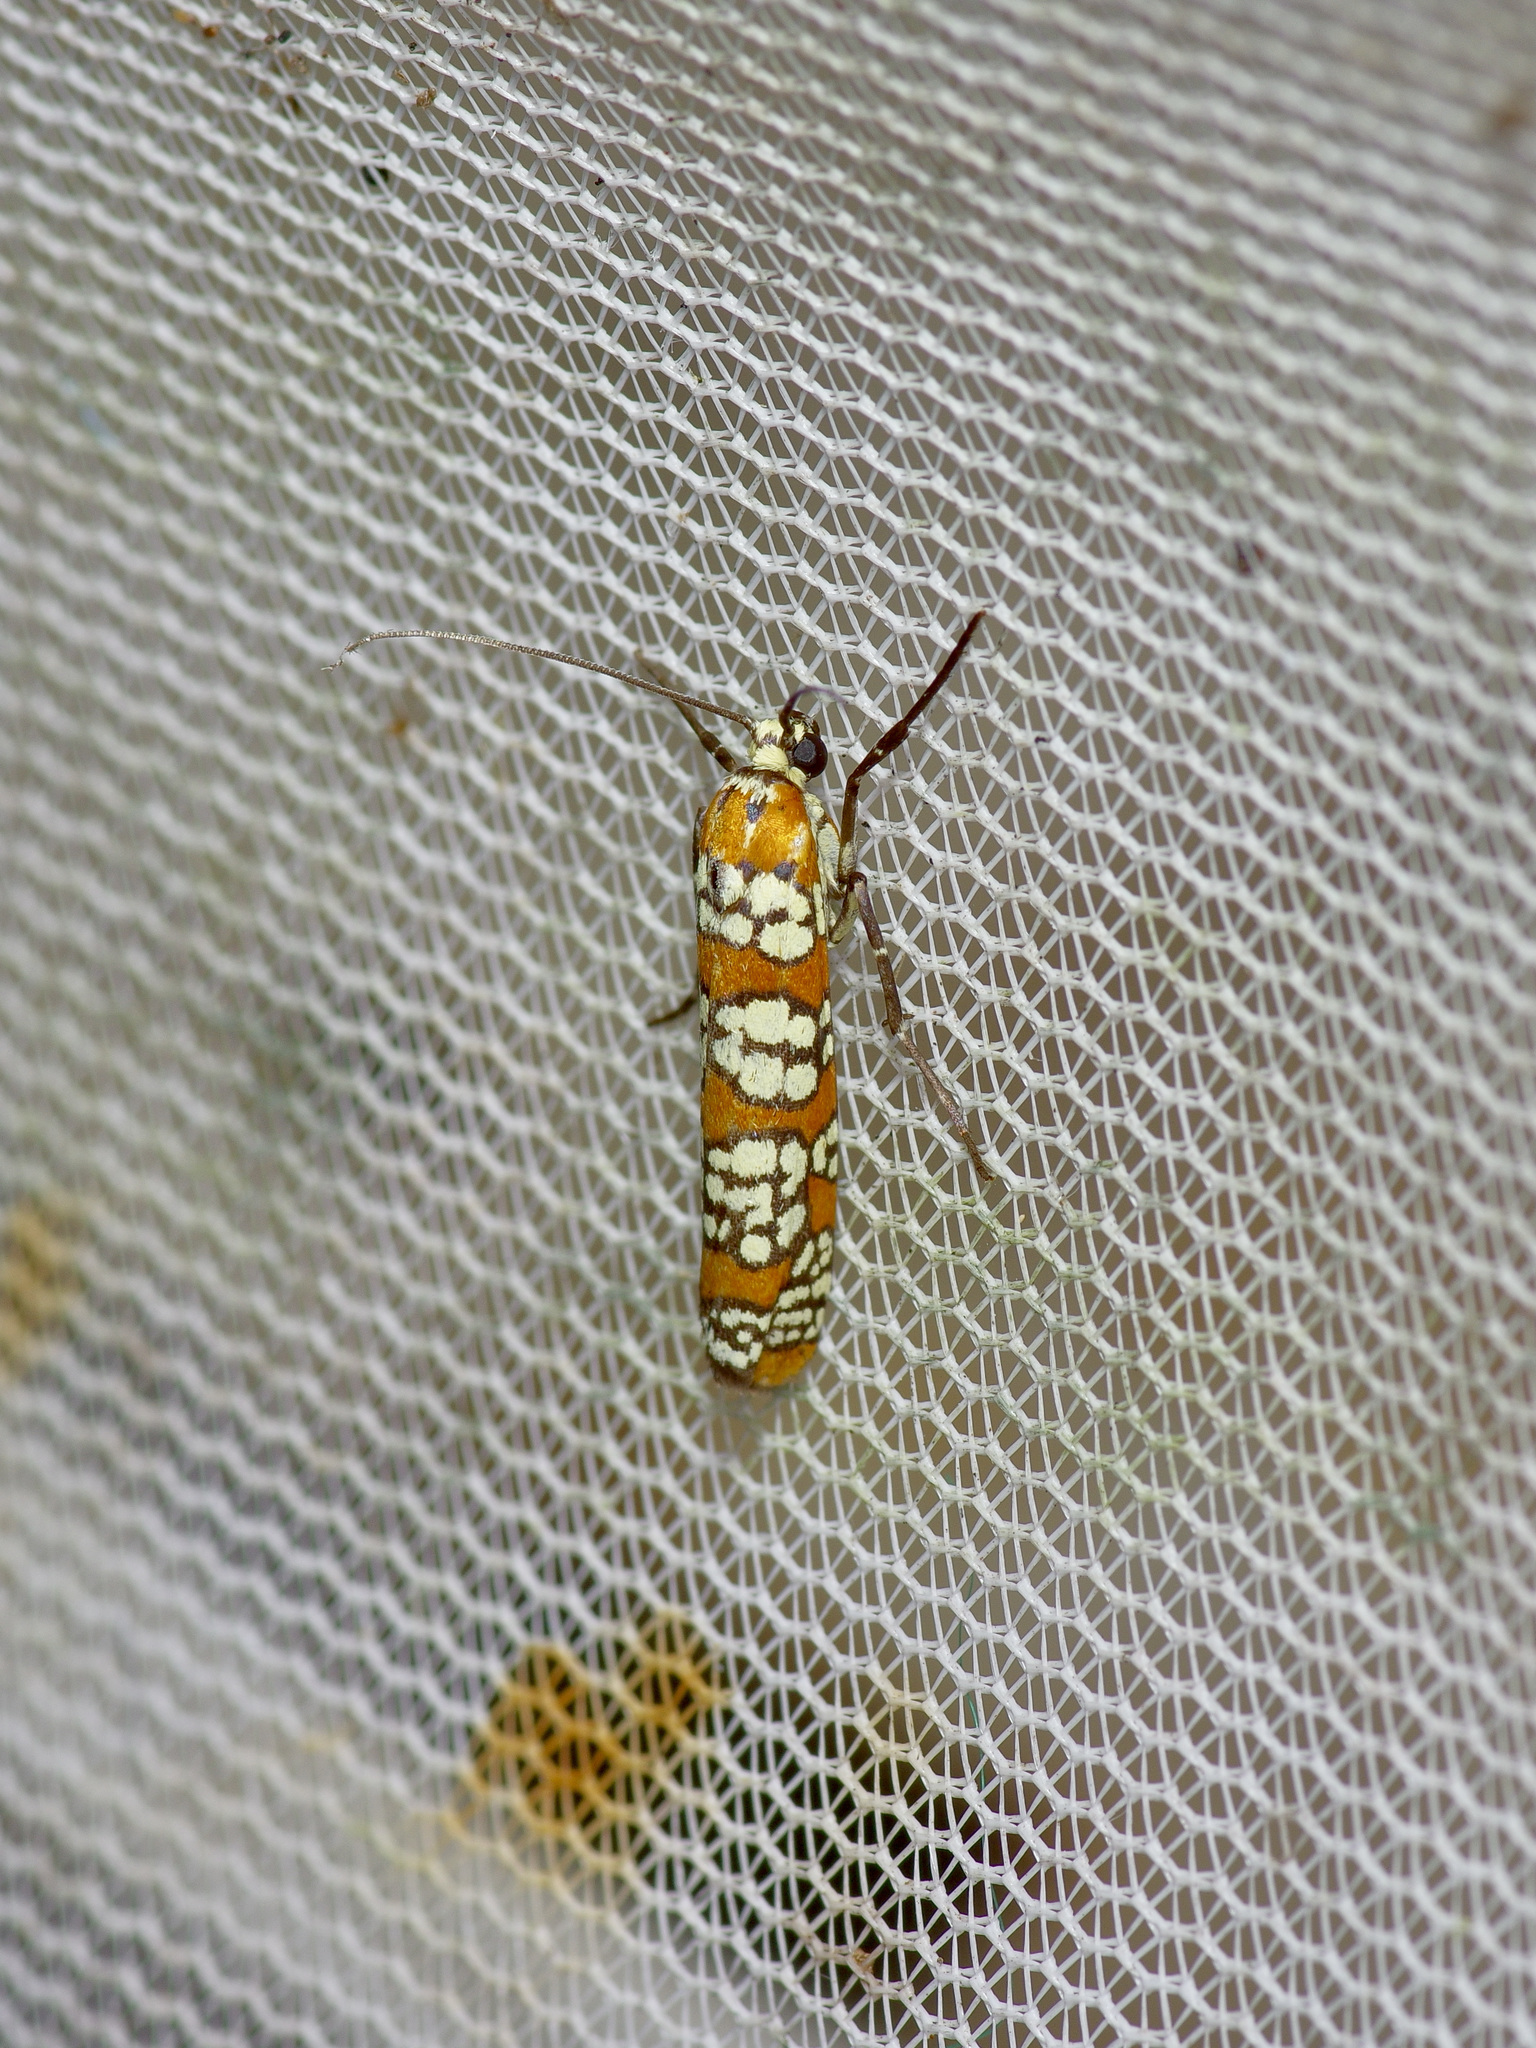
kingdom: Animalia
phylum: Arthropoda
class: Insecta
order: Lepidoptera
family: Attevidae
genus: Atteva
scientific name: Atteva punctella
